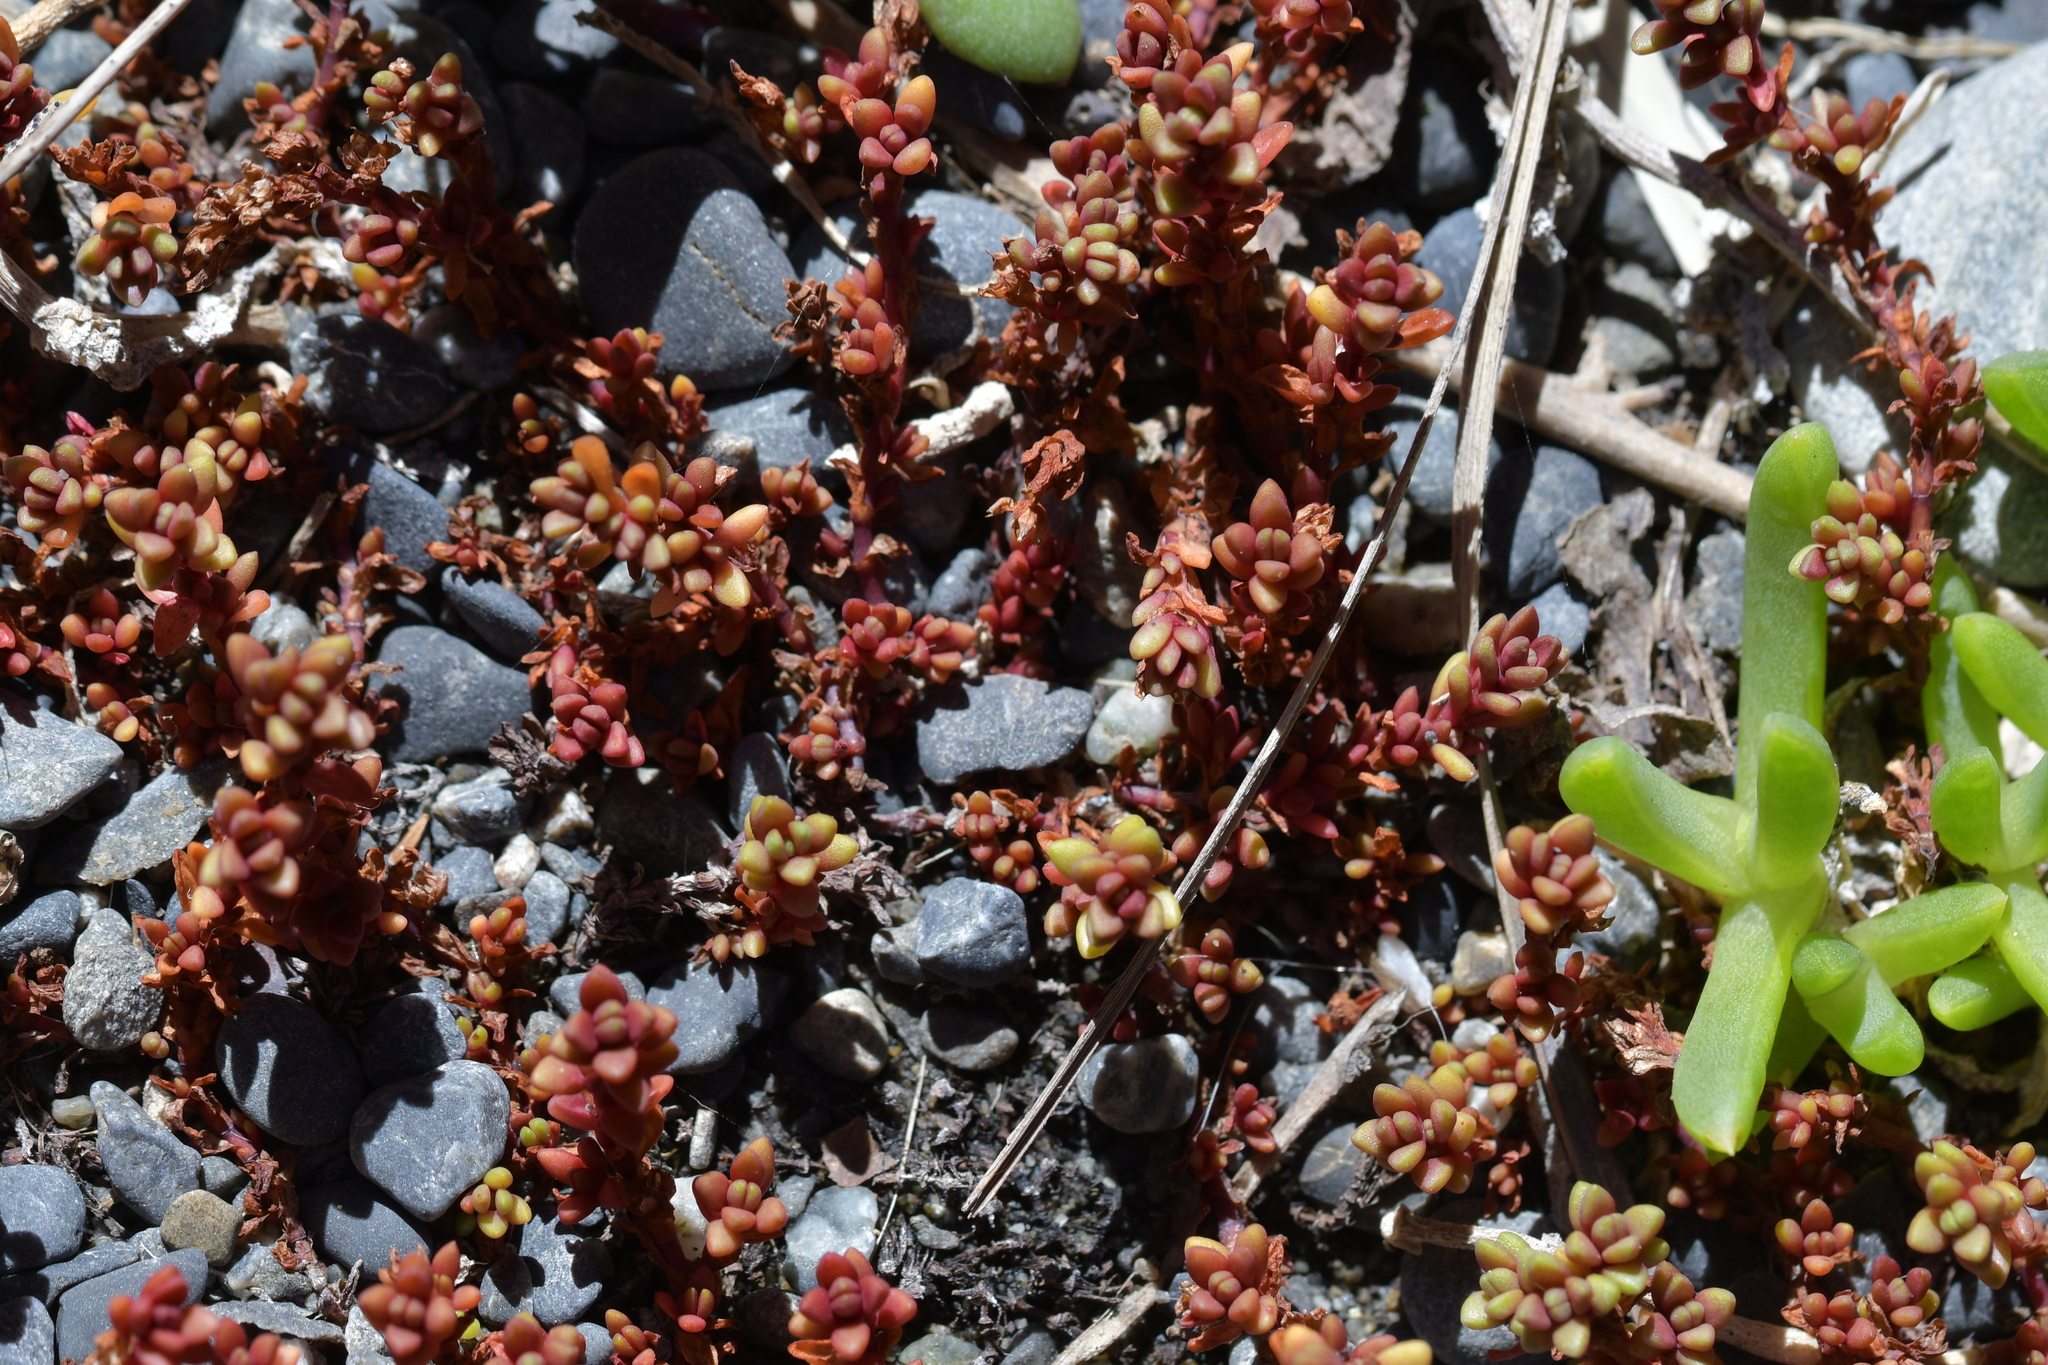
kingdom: Plantae
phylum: Tracheophyta
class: Magnoliopsida
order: Saxifragales
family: Crassulaceae
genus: Crassula
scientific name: Crassula moschata
